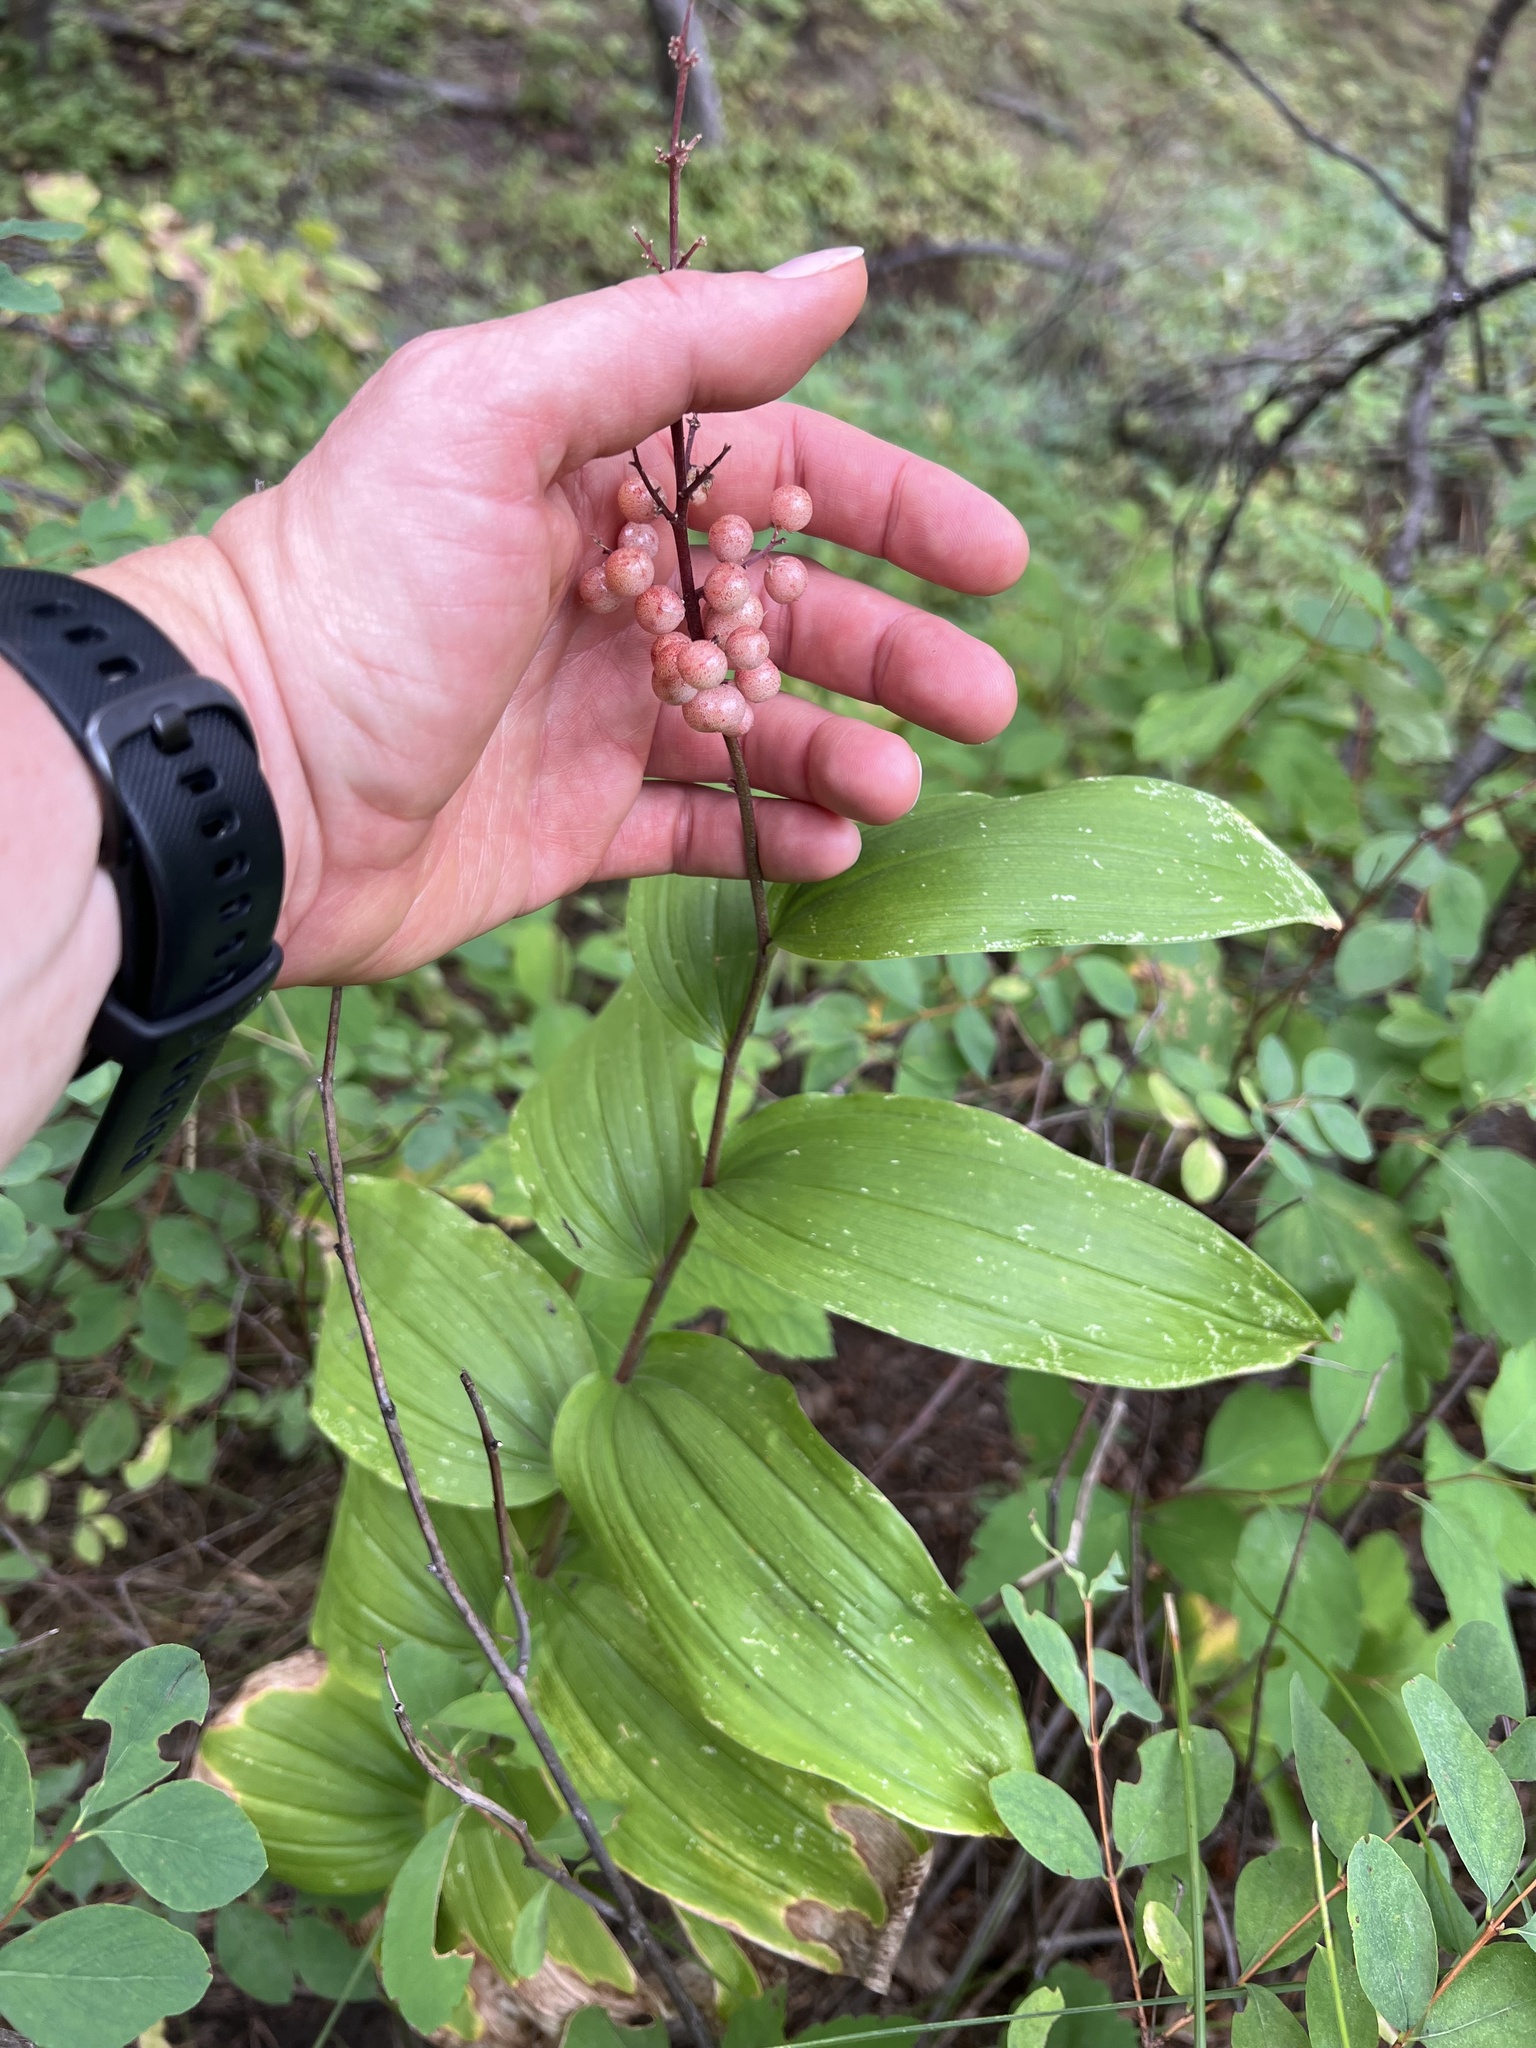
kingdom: Plantae
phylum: Tracheophyta
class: Liliopsida
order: Asparagales
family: Asparagaceae
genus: Maianthemum
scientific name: Maianthemum racemosum
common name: False spikenard
